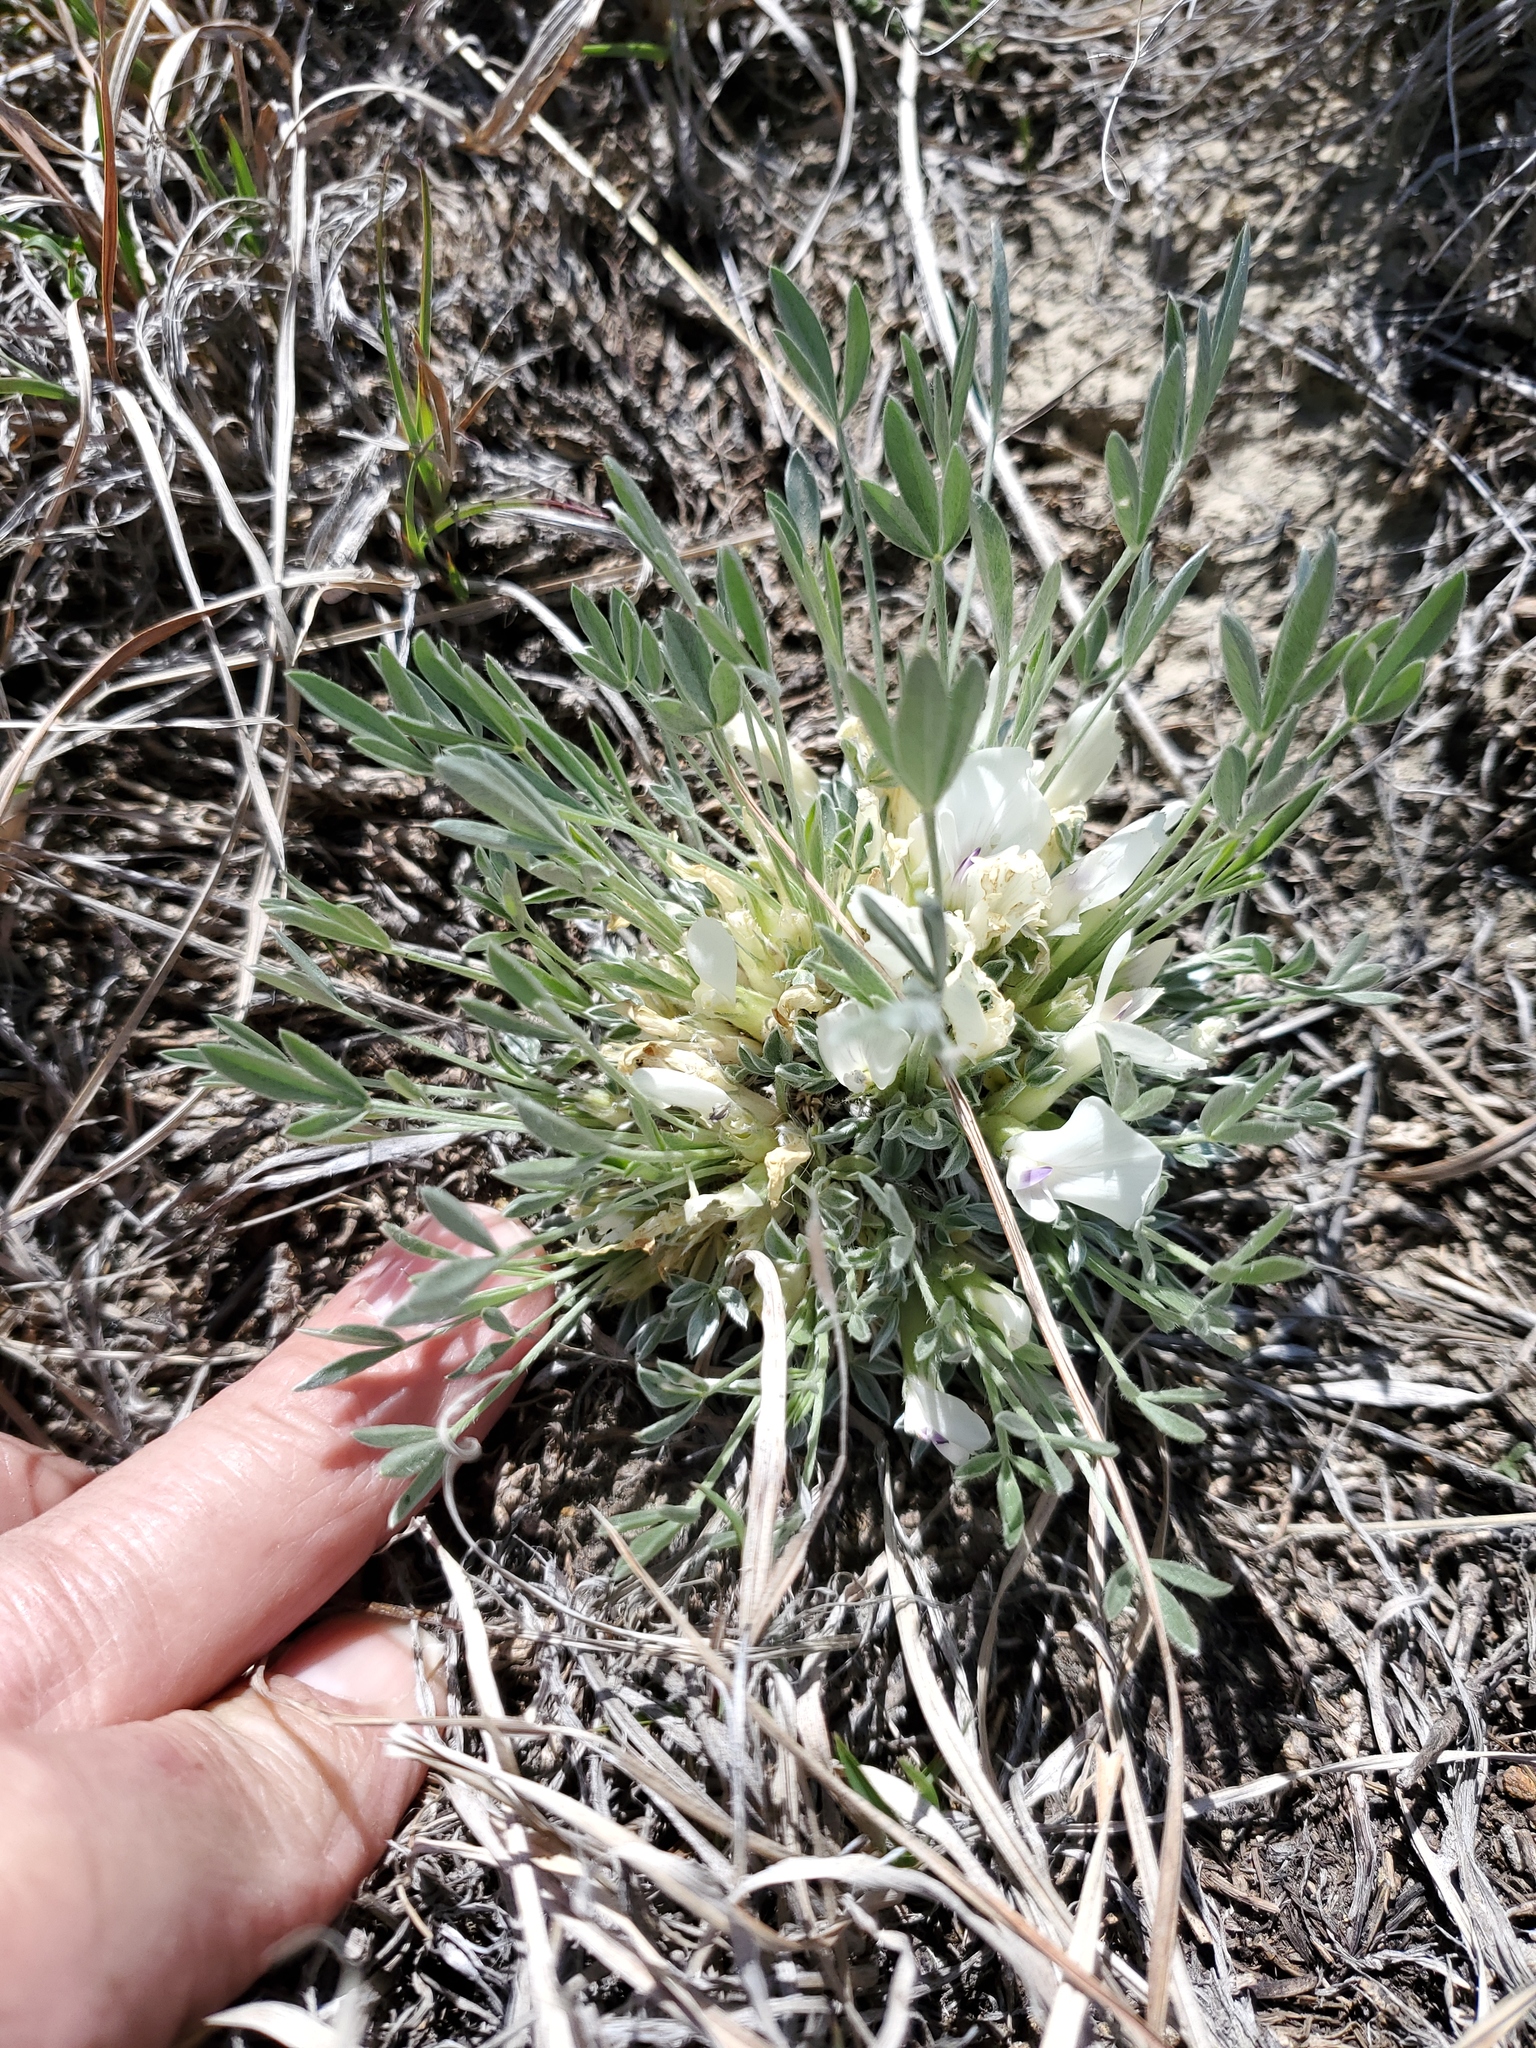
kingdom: Plantae
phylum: Tracheophyta
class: Magnoliopsida
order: Fabales
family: Fabaceae
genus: Astragalus
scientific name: Astragalus gilviflorus
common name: Cushion milk-vetch
